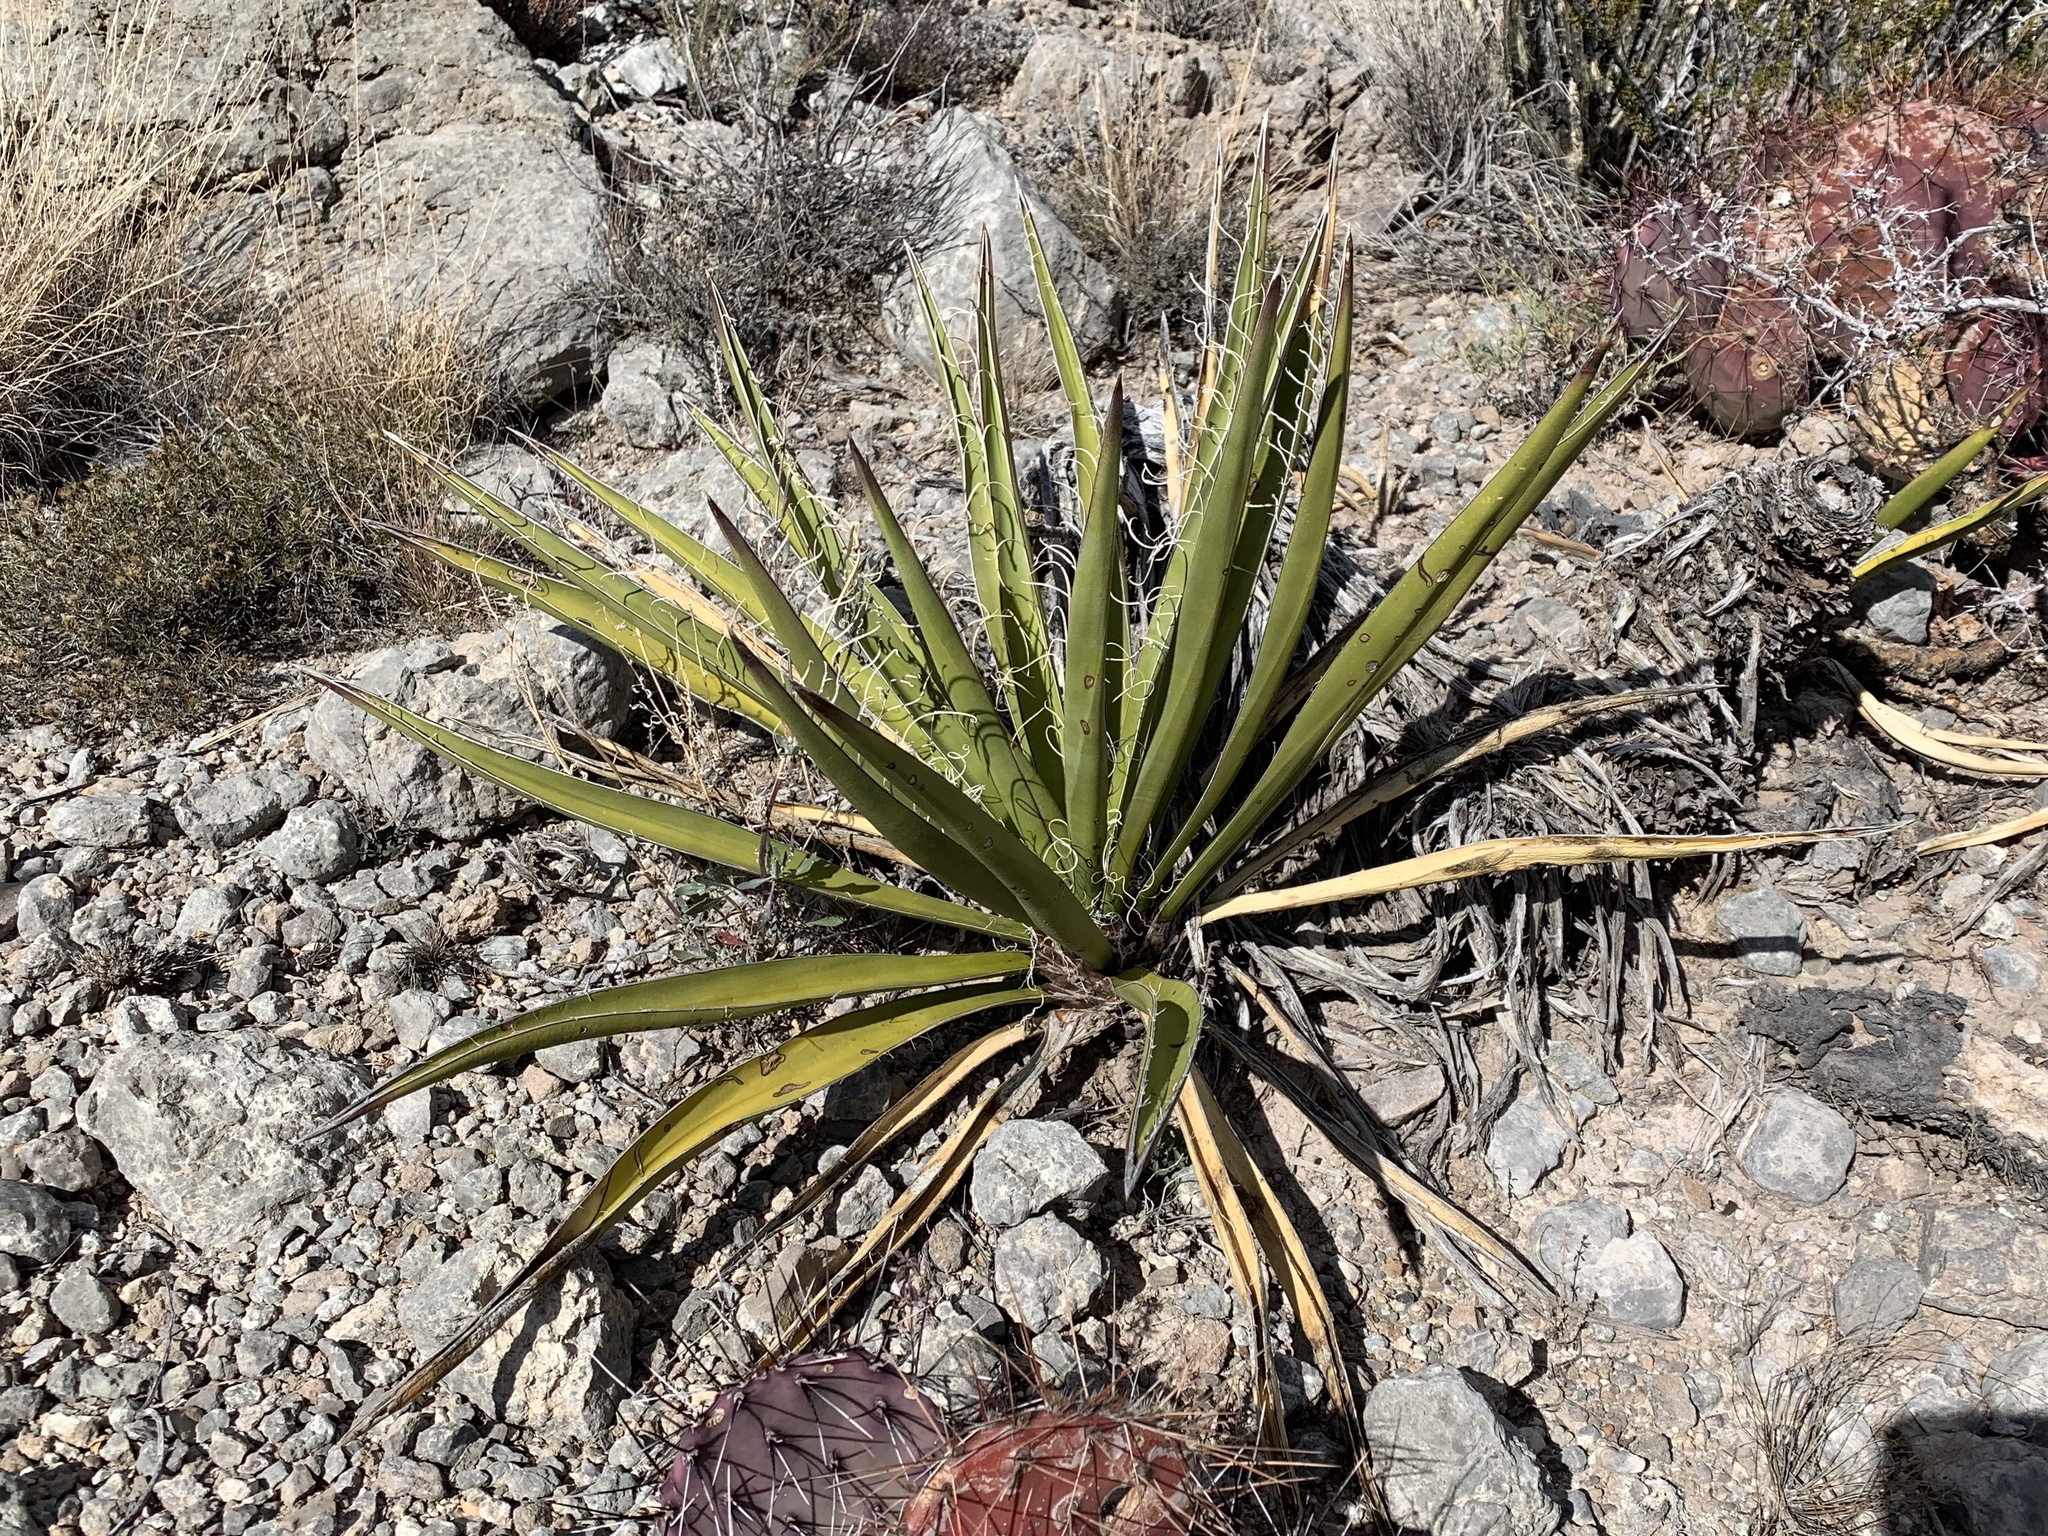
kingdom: Plantae
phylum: Tracheophyta
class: Liliopsida
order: Asparagales
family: Asparagaceae
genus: Yucca
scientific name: Yucca baccata
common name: Banana yucca
